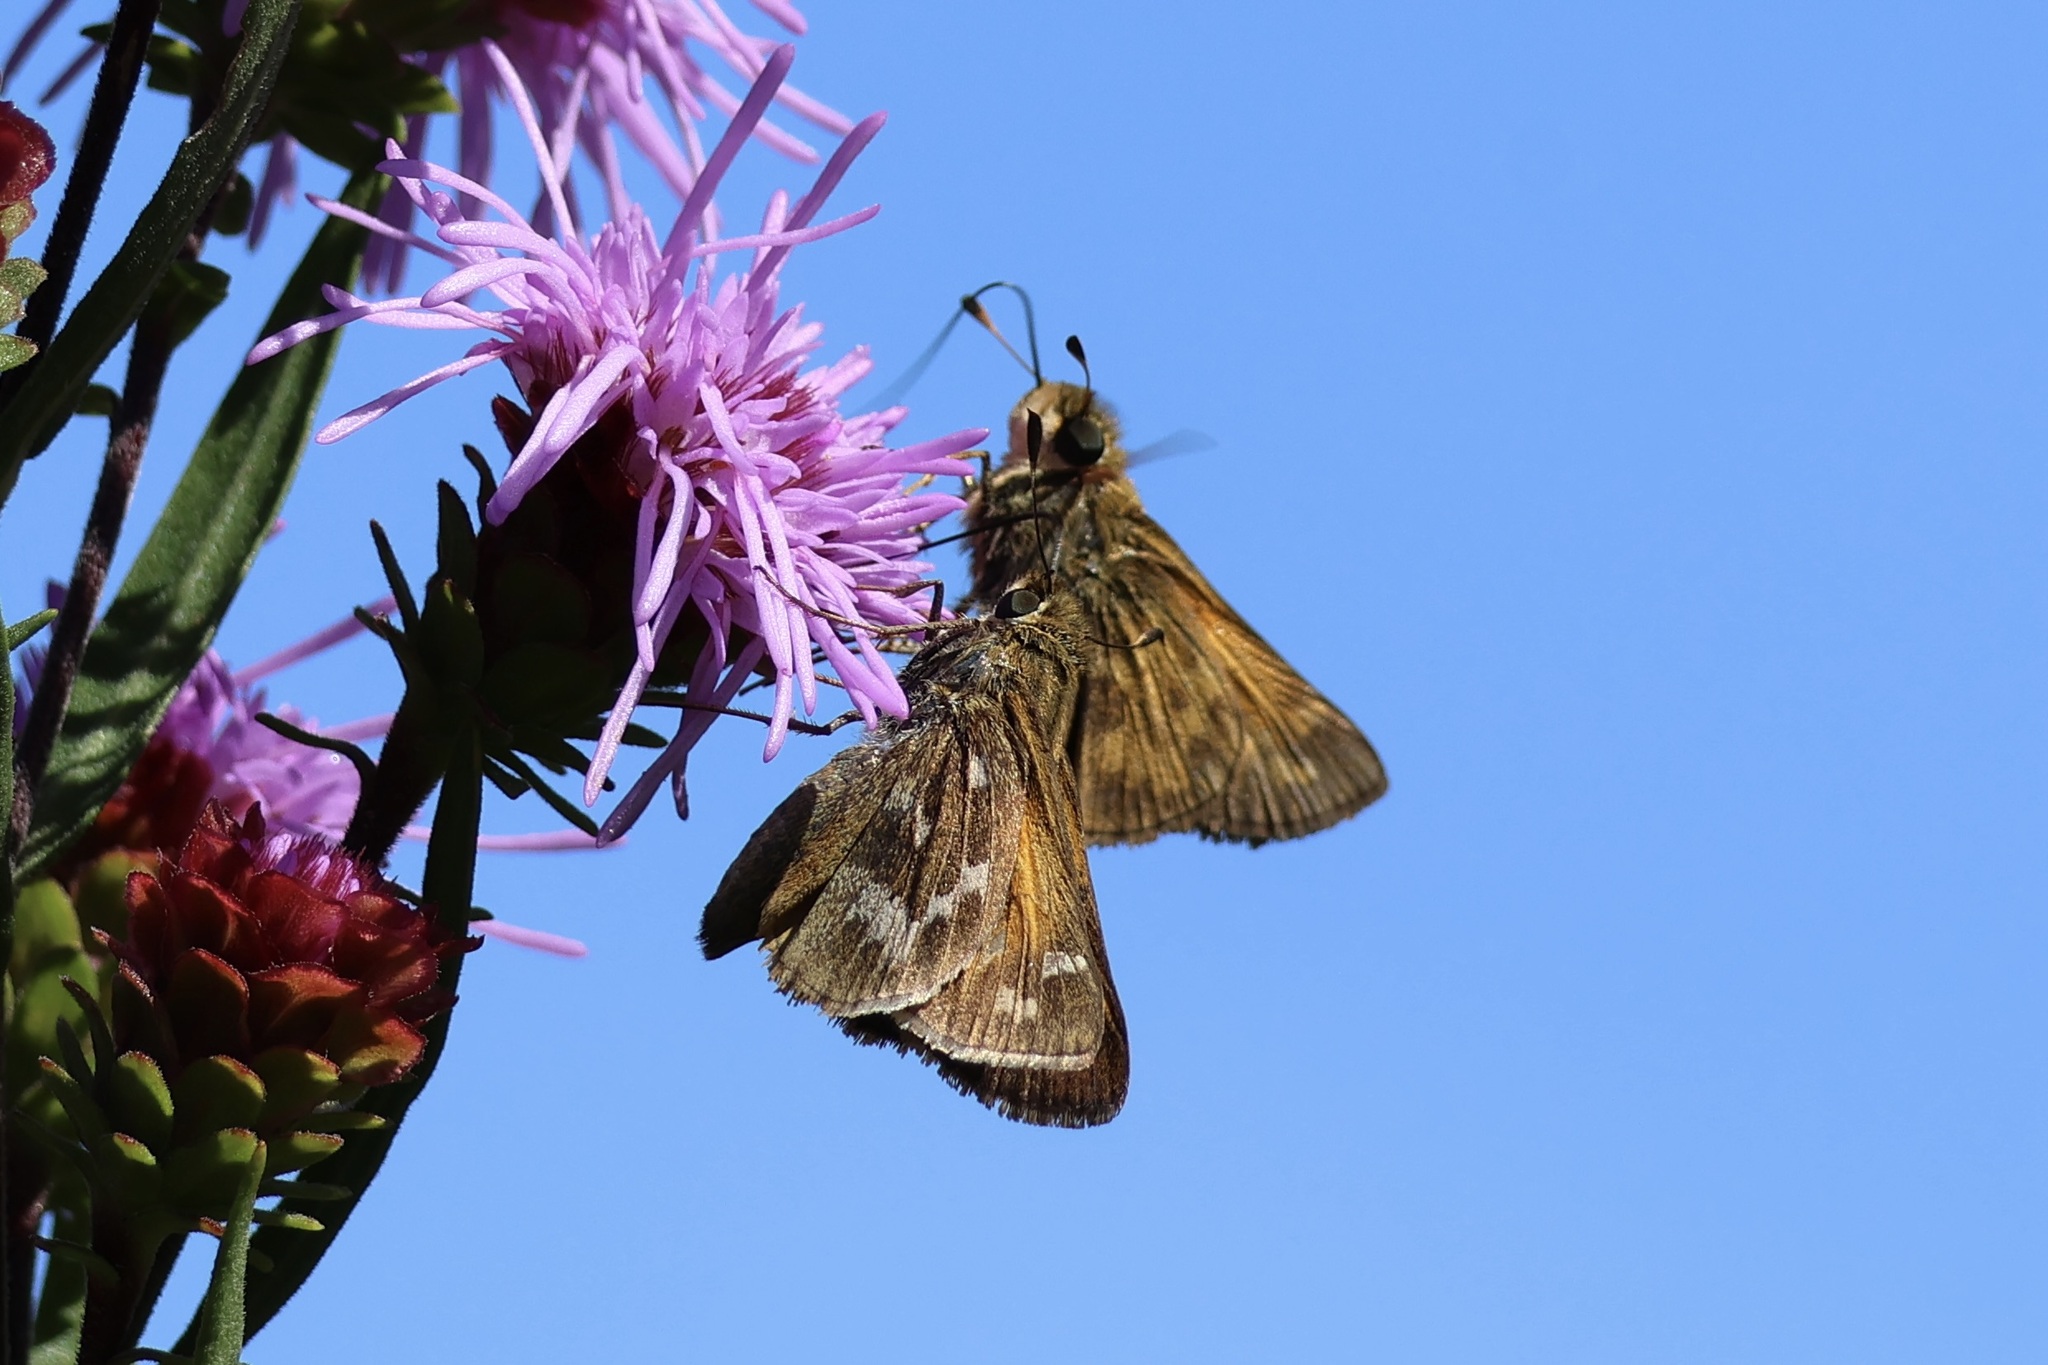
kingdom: Animalia
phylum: Arthropoda
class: Insecta
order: Lepidoptera
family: Hesperiidae
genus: Atalopedes
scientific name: Atalopedes
